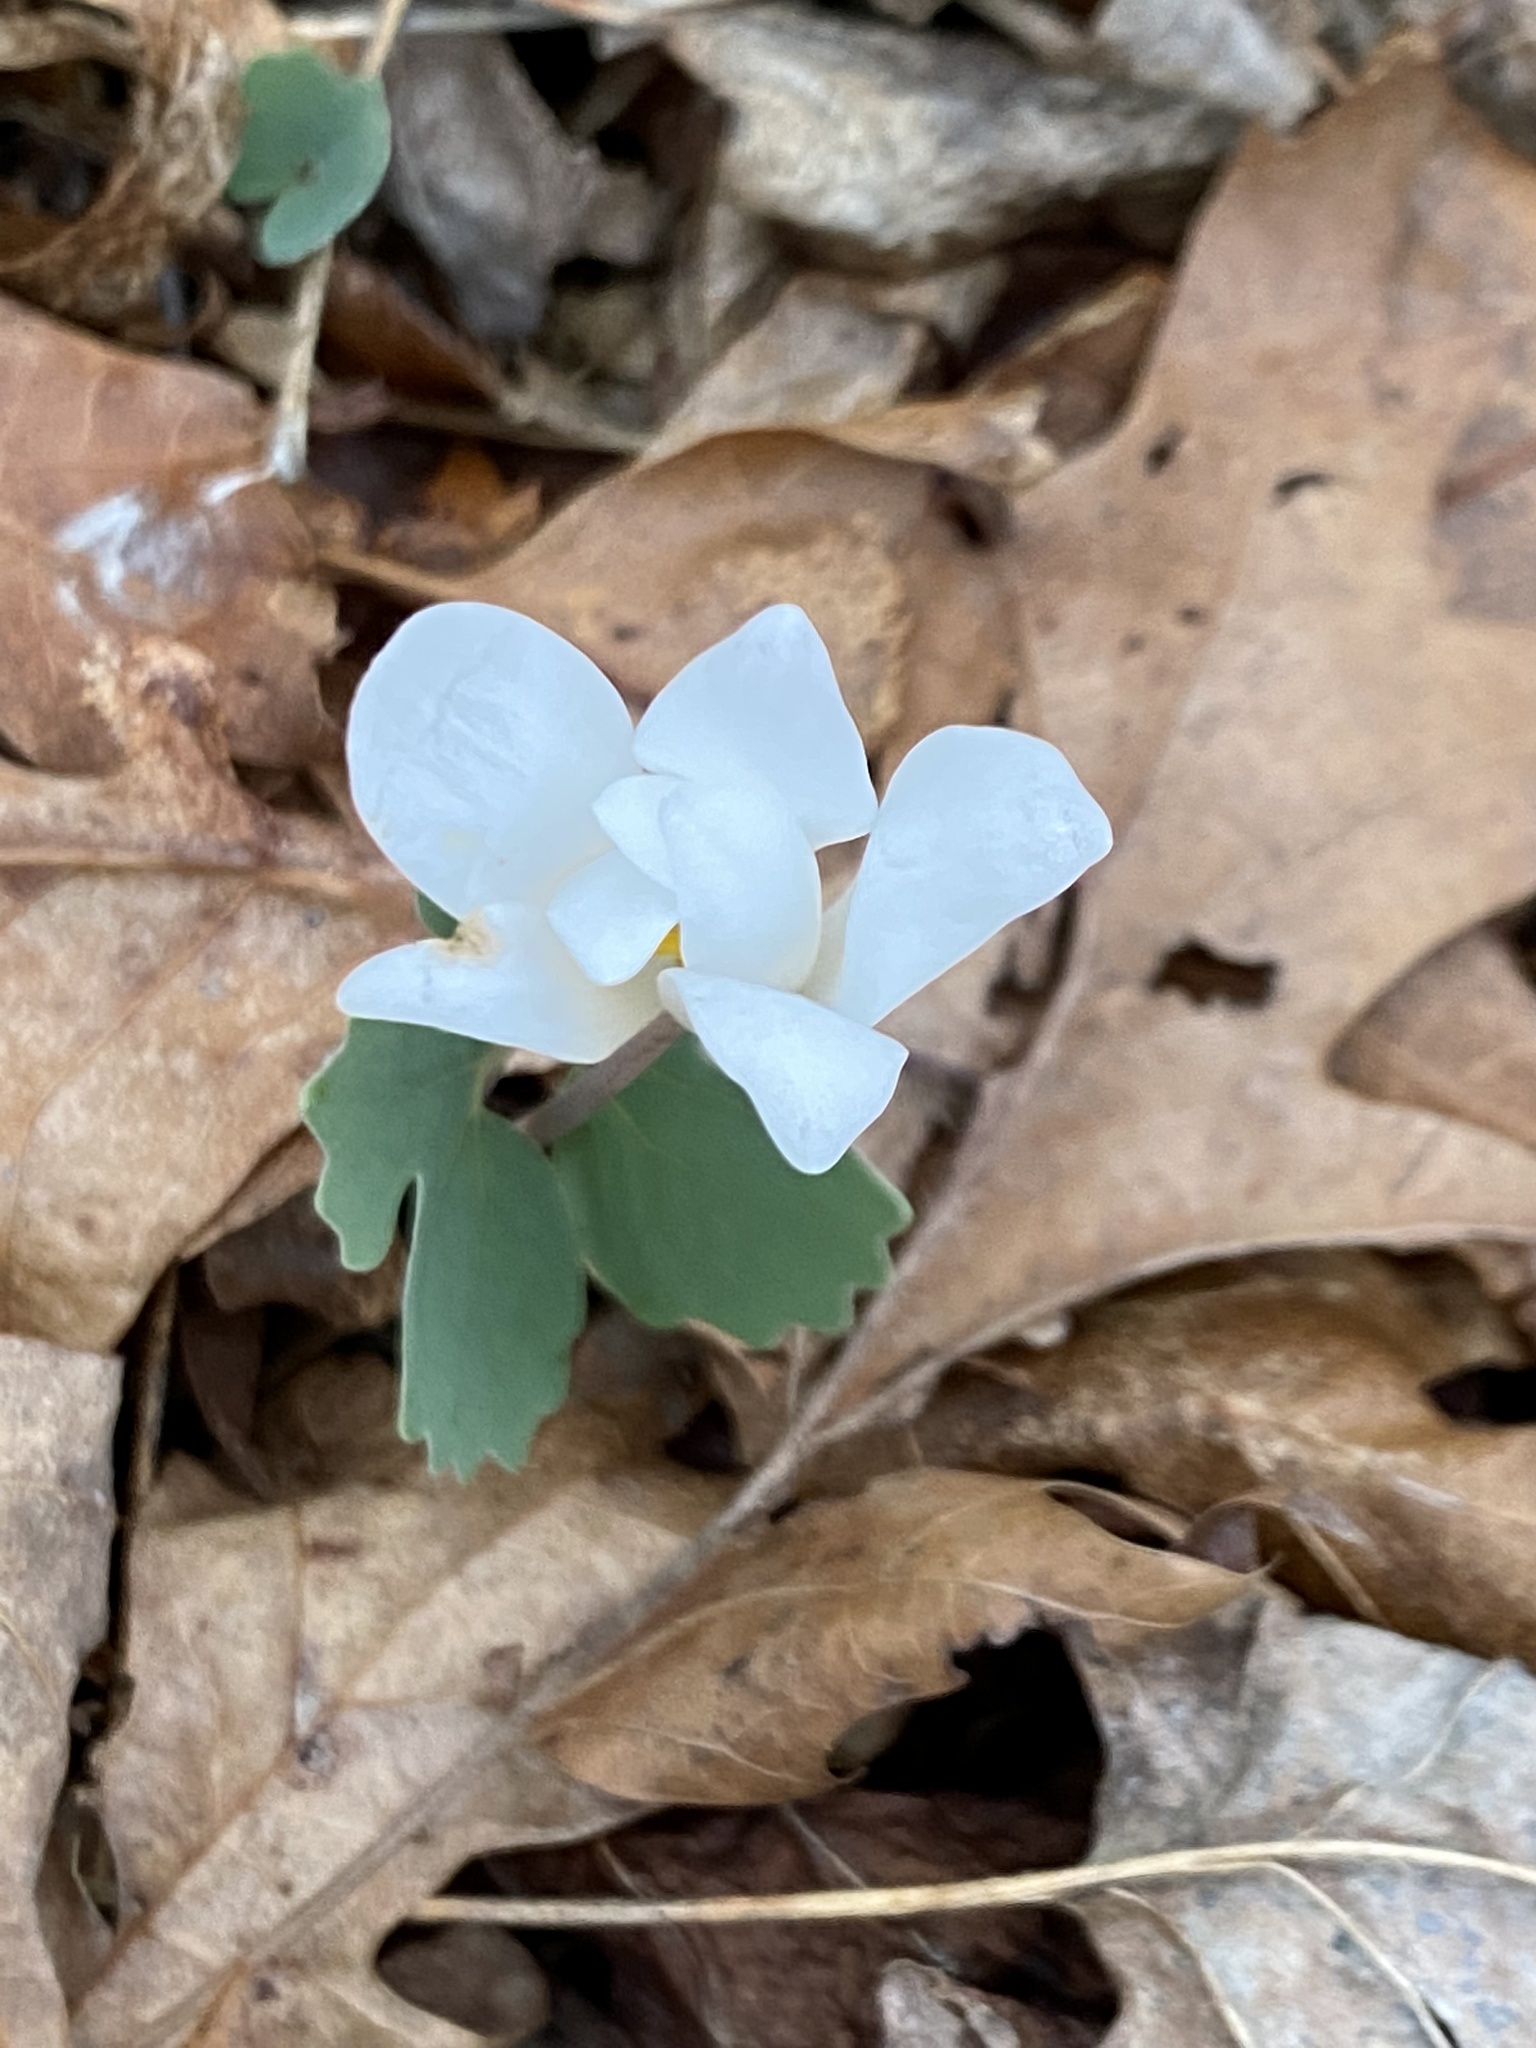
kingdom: Plantae
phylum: Tracheophyta
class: Magnoliopsida
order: Ranunculales
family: Papaveraceae
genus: Sanguinaria
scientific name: Sanguinaria canadensis
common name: Bloodroot
